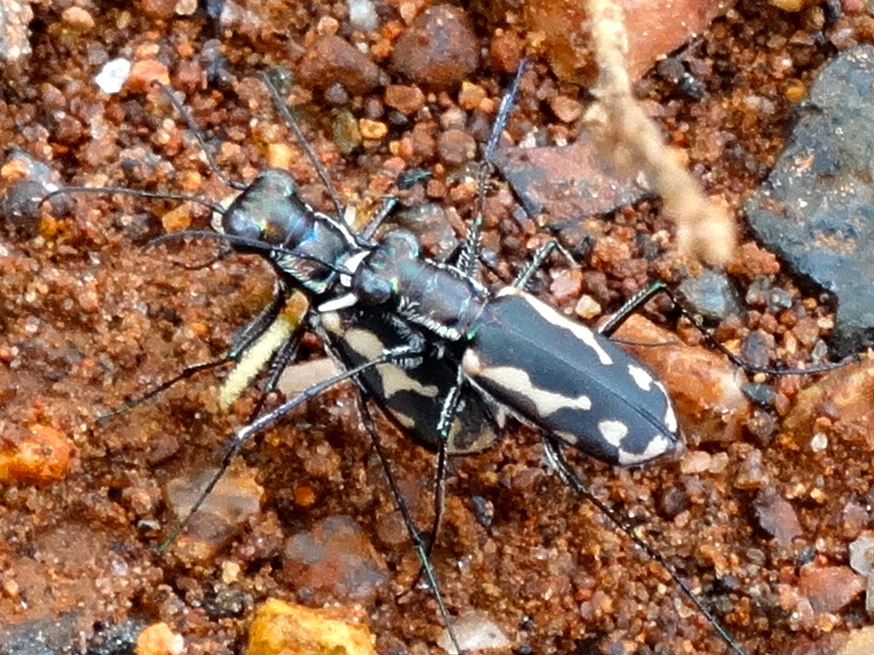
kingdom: Animalia
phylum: Arthropoda
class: Insecta
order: Coleoptera
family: Carabidae
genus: Cicindela
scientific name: Cicindela hydrophoba
